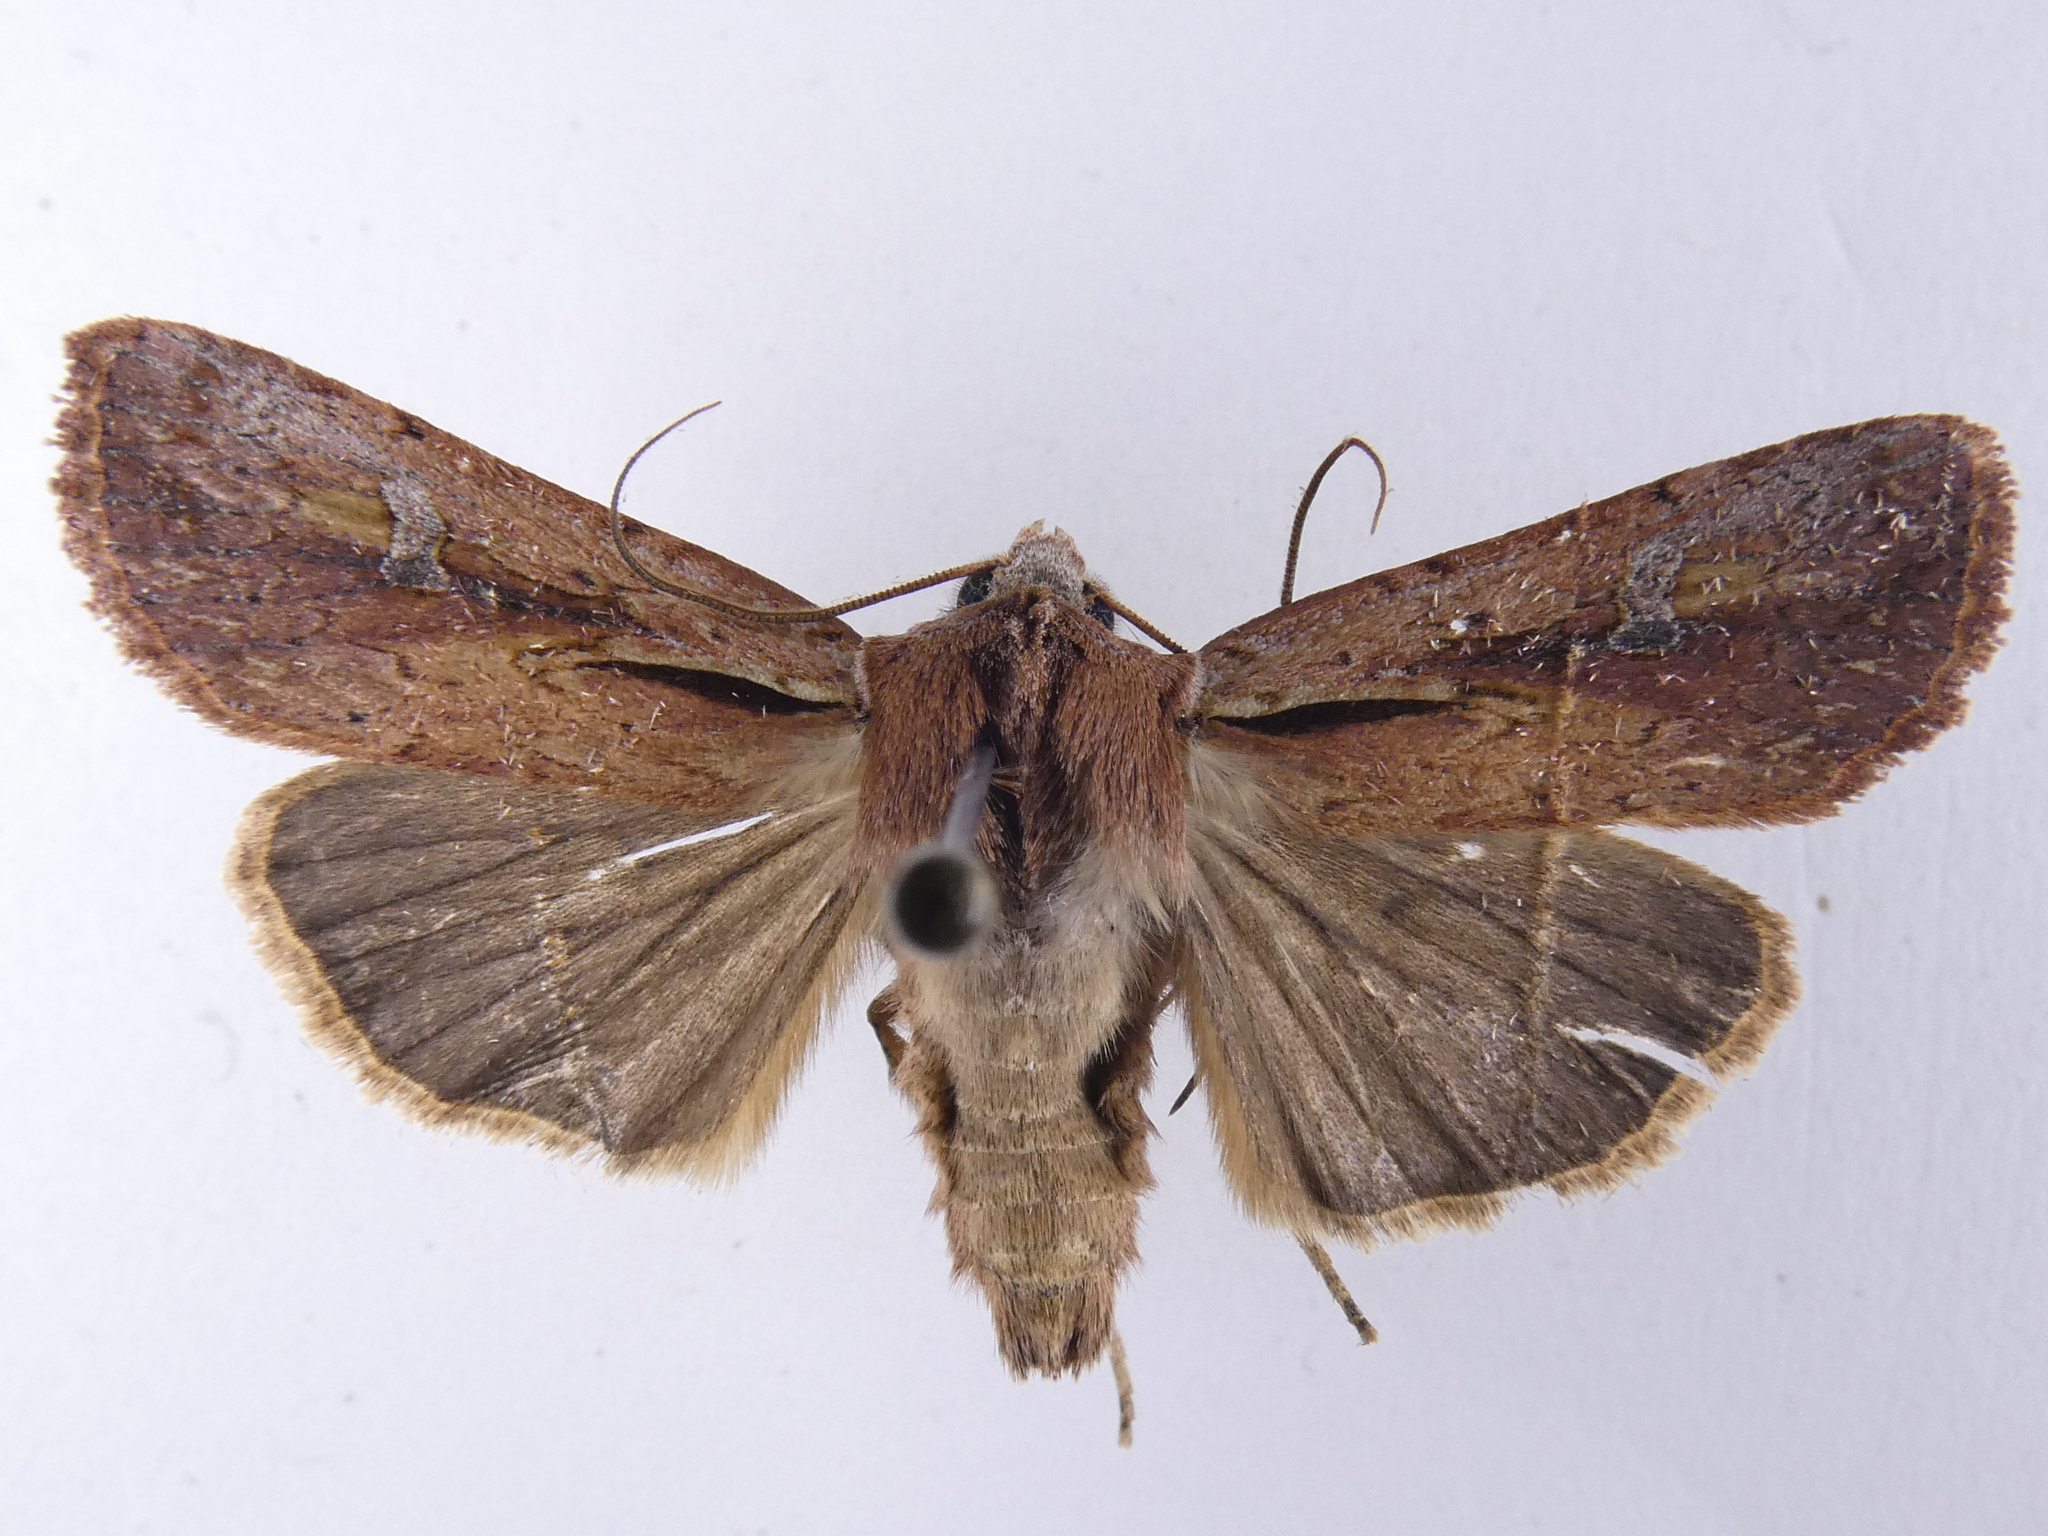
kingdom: Animalia
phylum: Arthropoda
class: Insecta
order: Lepidoptera
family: Noctuidae
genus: Ichneutica
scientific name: Ichneutica atristriga
